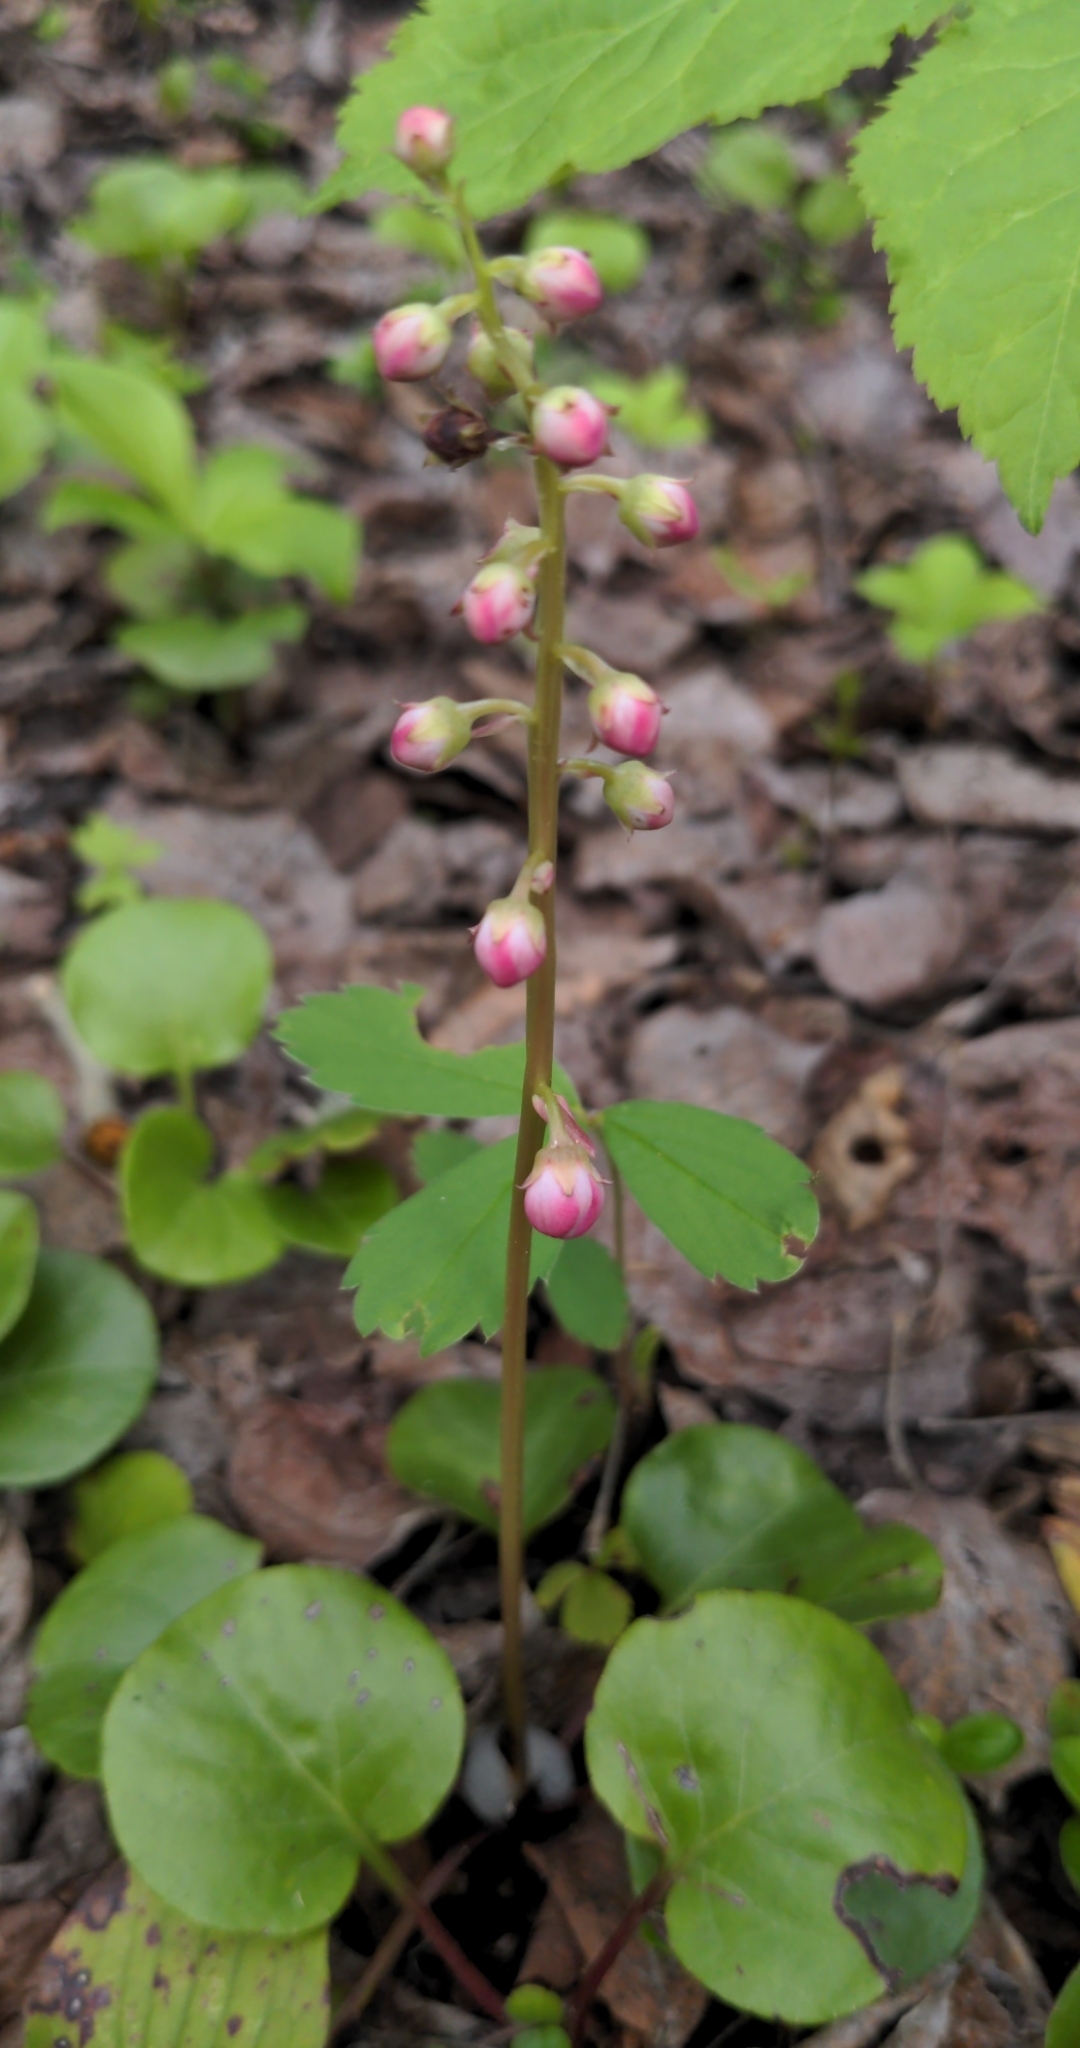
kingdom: Plantae
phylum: Tracheophyta
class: Magnoliopsida
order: Ericales
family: Ericaceae
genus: Pyrola
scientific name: Pyrola asarifolia
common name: Bog wintergreen
